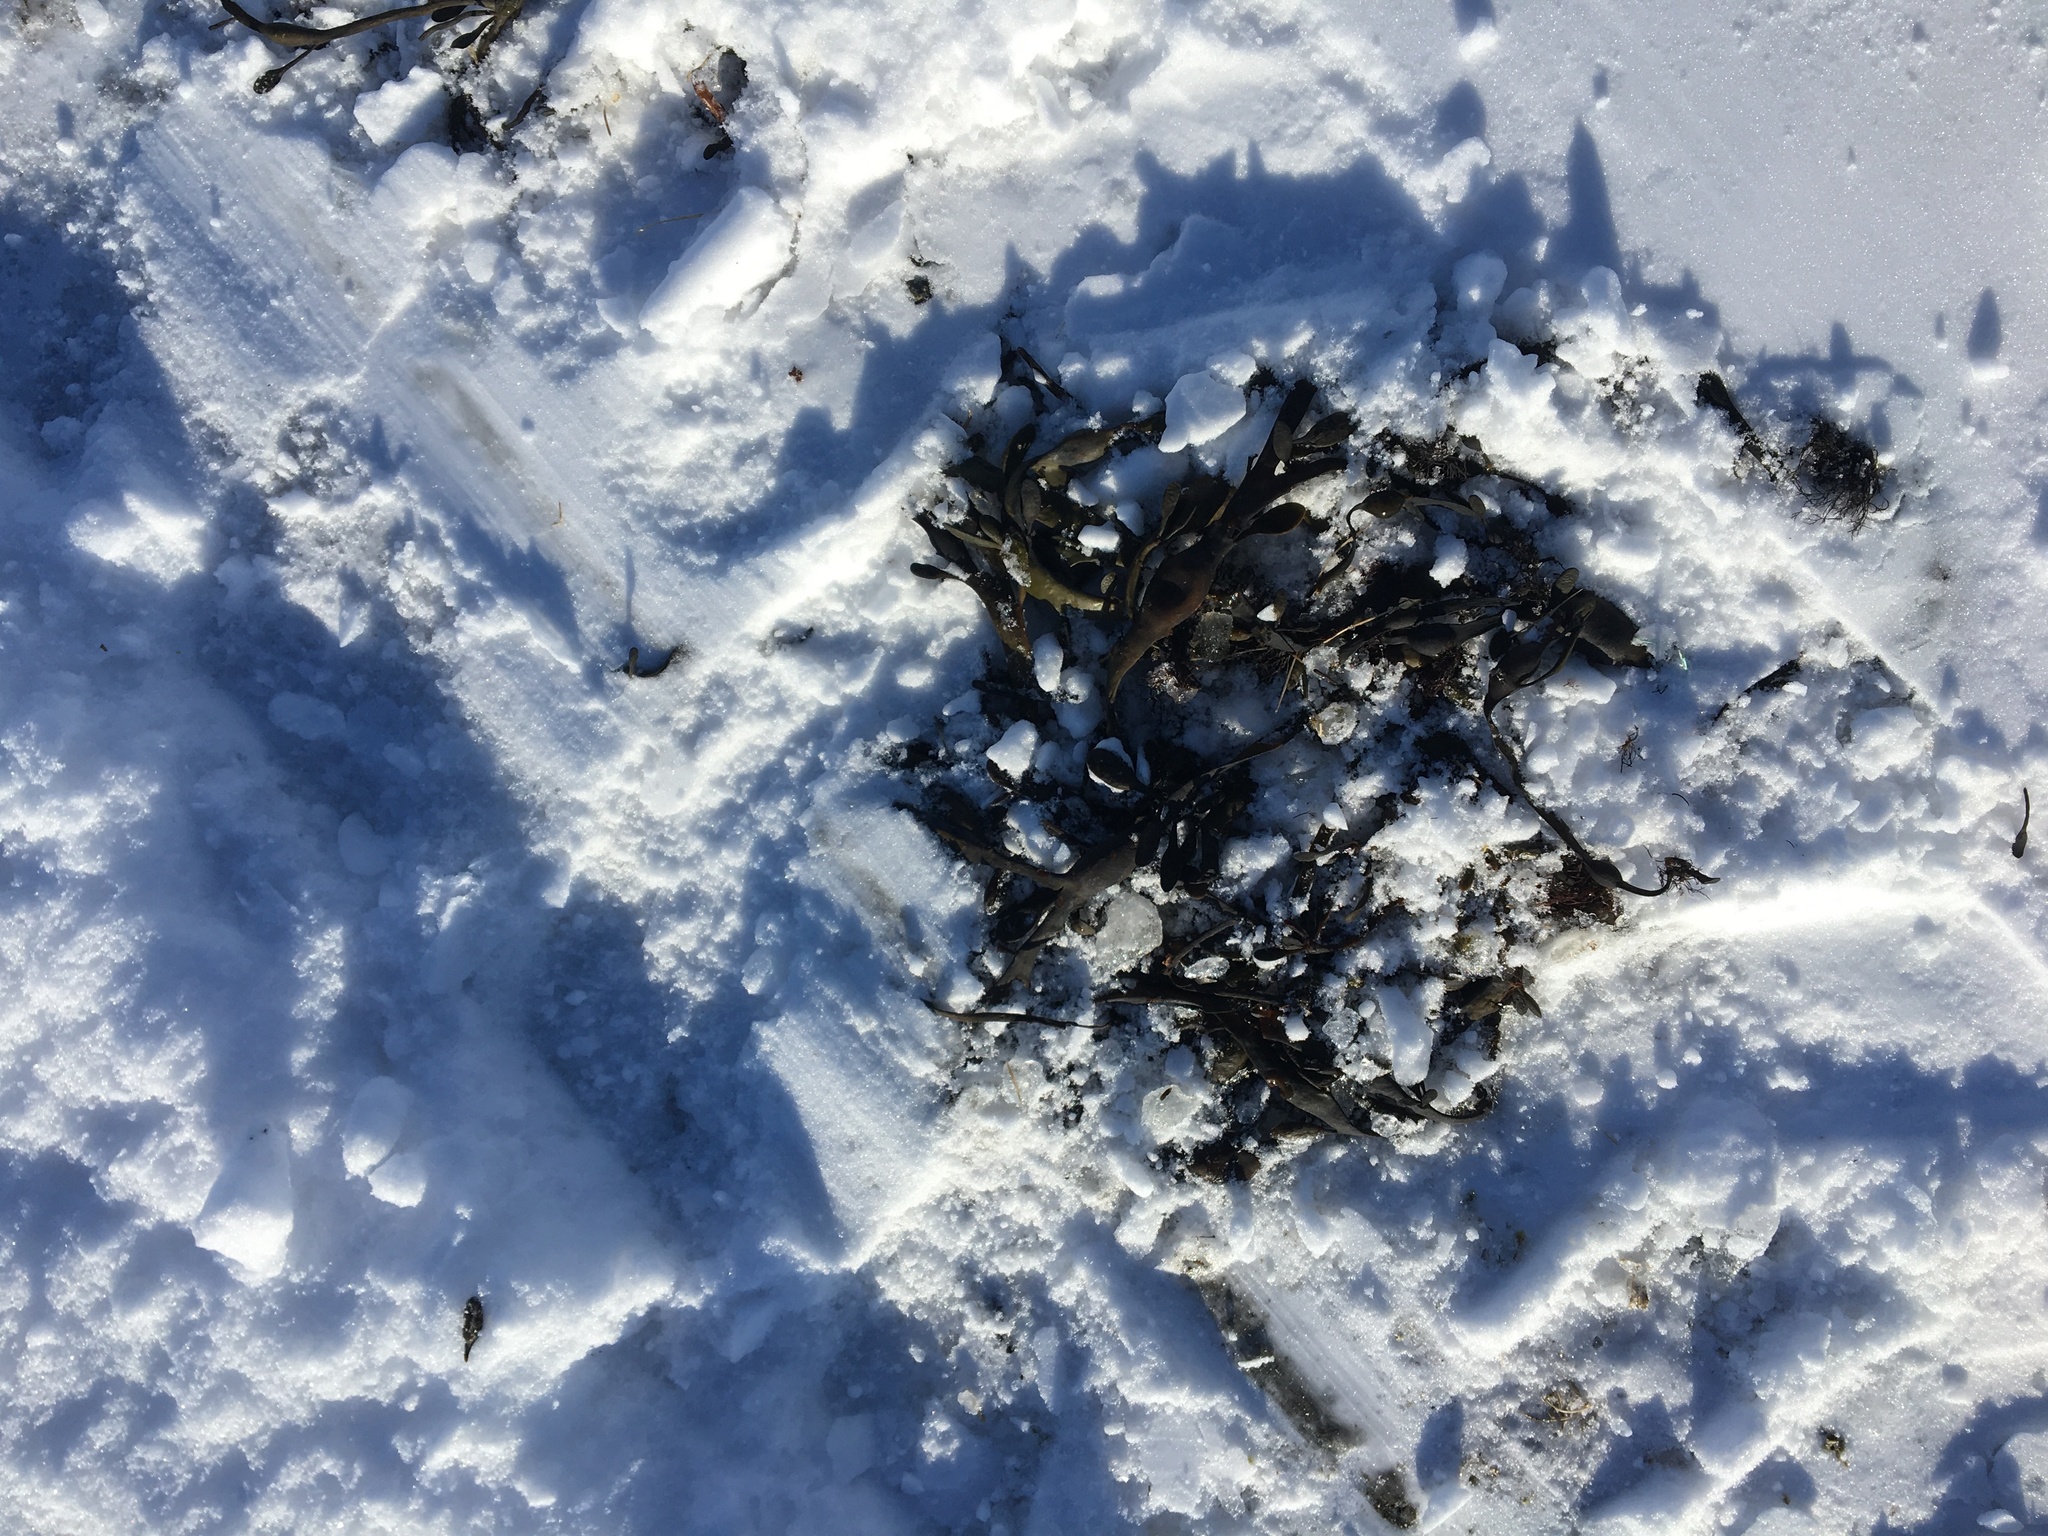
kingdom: Chromista
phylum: Ochrophyta
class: Phaeophyceae
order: Fucales
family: Fucaceae
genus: Ascophyllum
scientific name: Ascophyllum nodosum
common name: Knotted wrack
